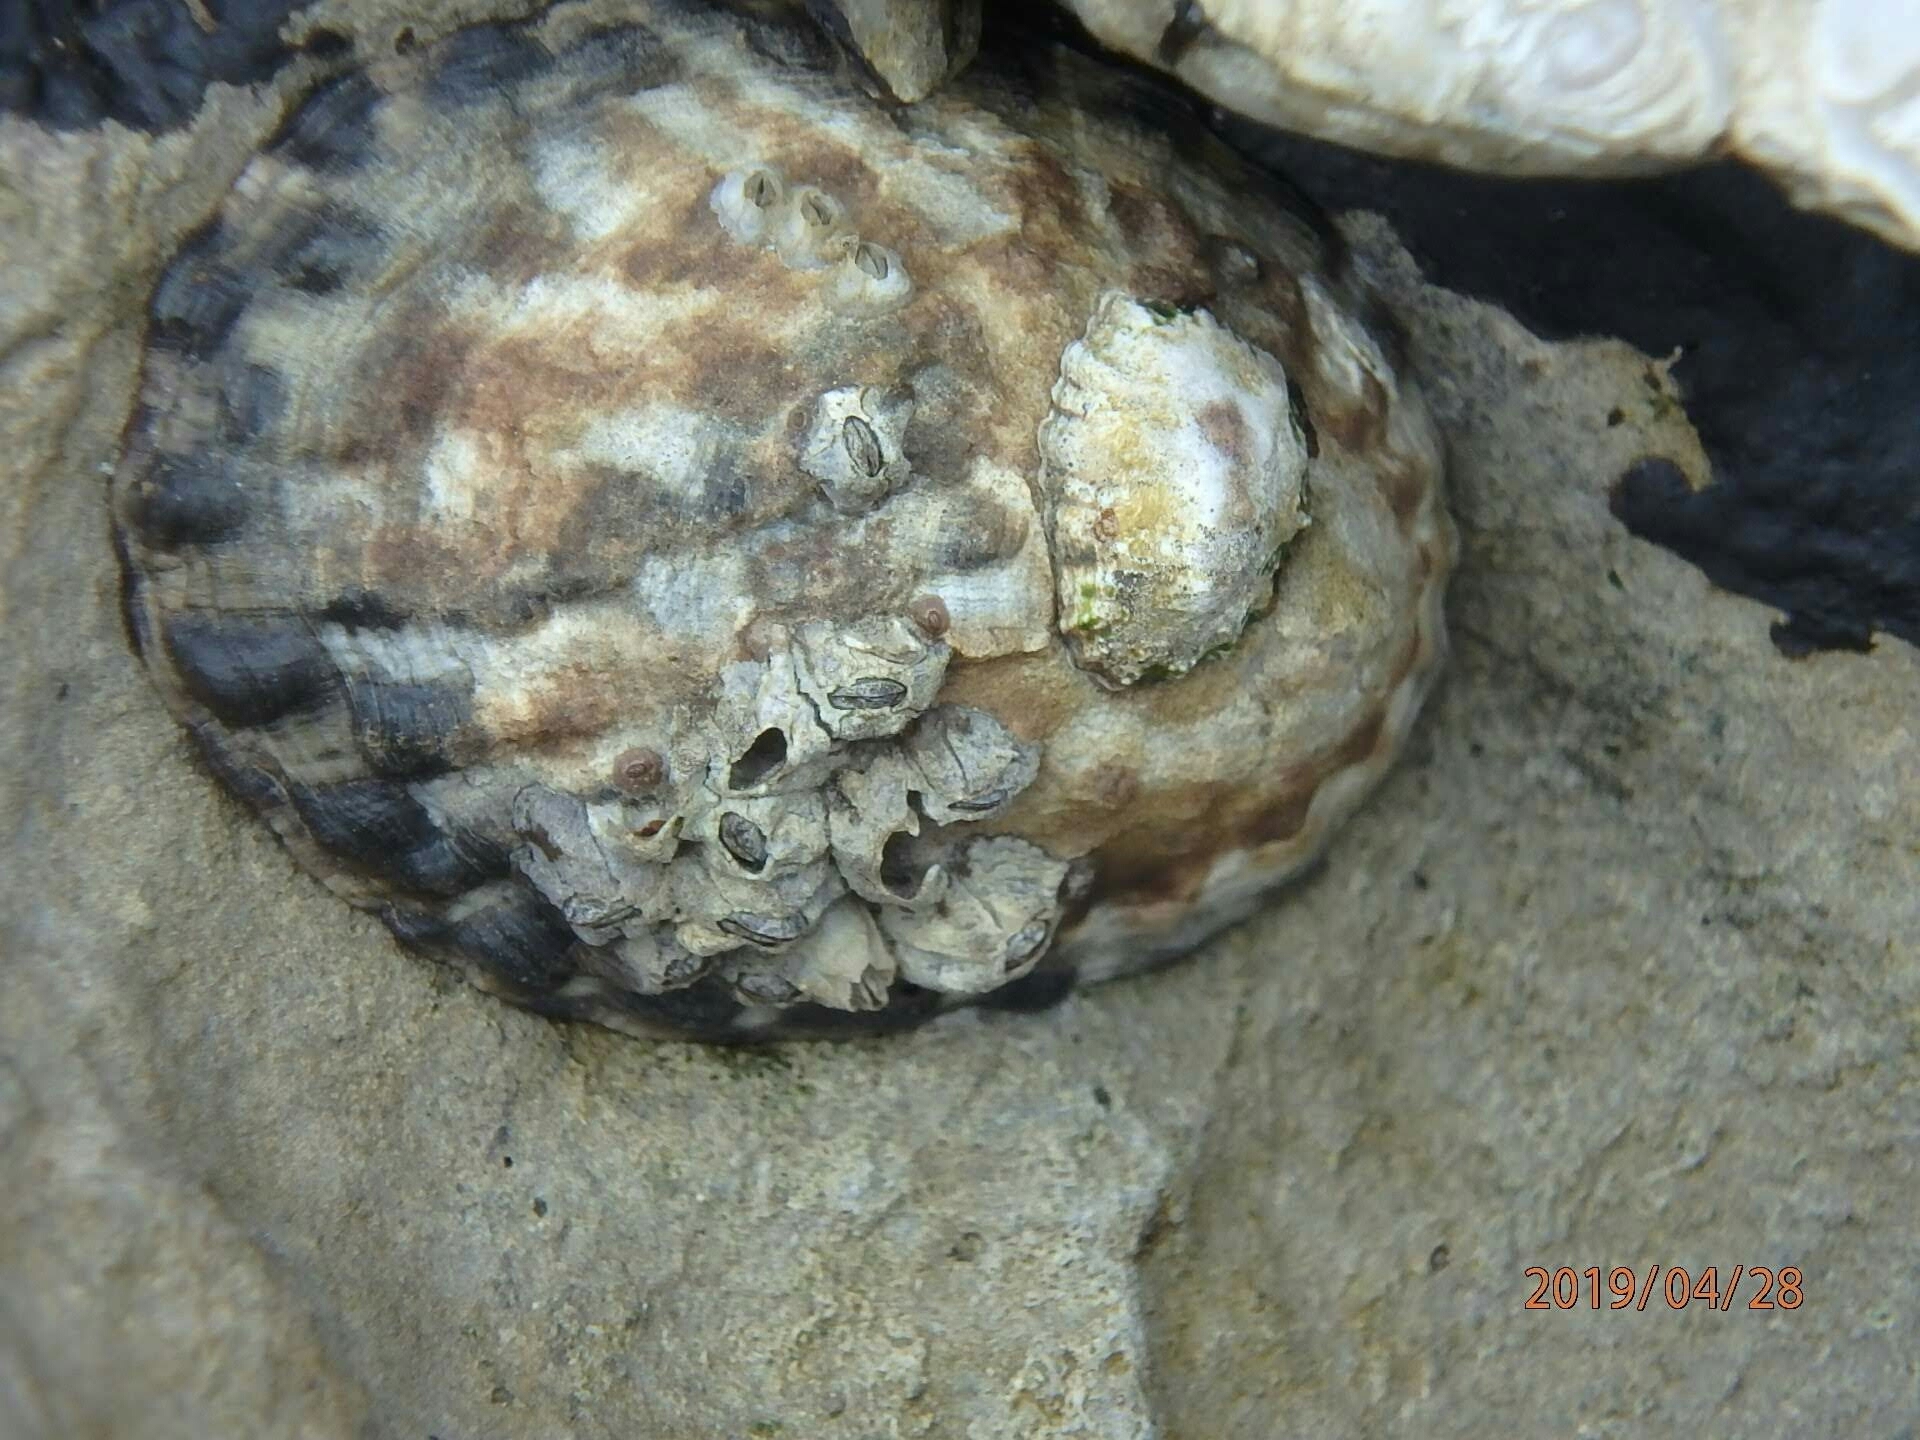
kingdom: Animalia
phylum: Mollusca
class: Gastropoda
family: Lottiidae
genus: Lottia
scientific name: Lottia gigantea
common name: Owl limpet
